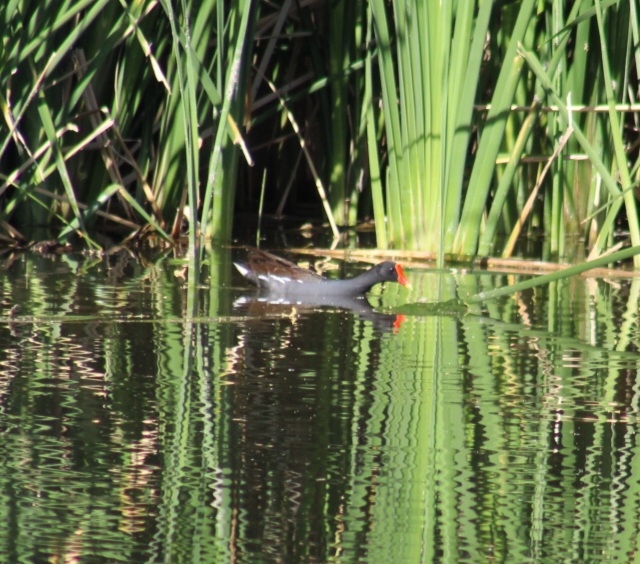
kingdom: Animalia
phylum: Chordata
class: Aves
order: Gruiformes
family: Rallidae
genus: Gallinula
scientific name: Gallinula chloropus
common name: Common moorhen
